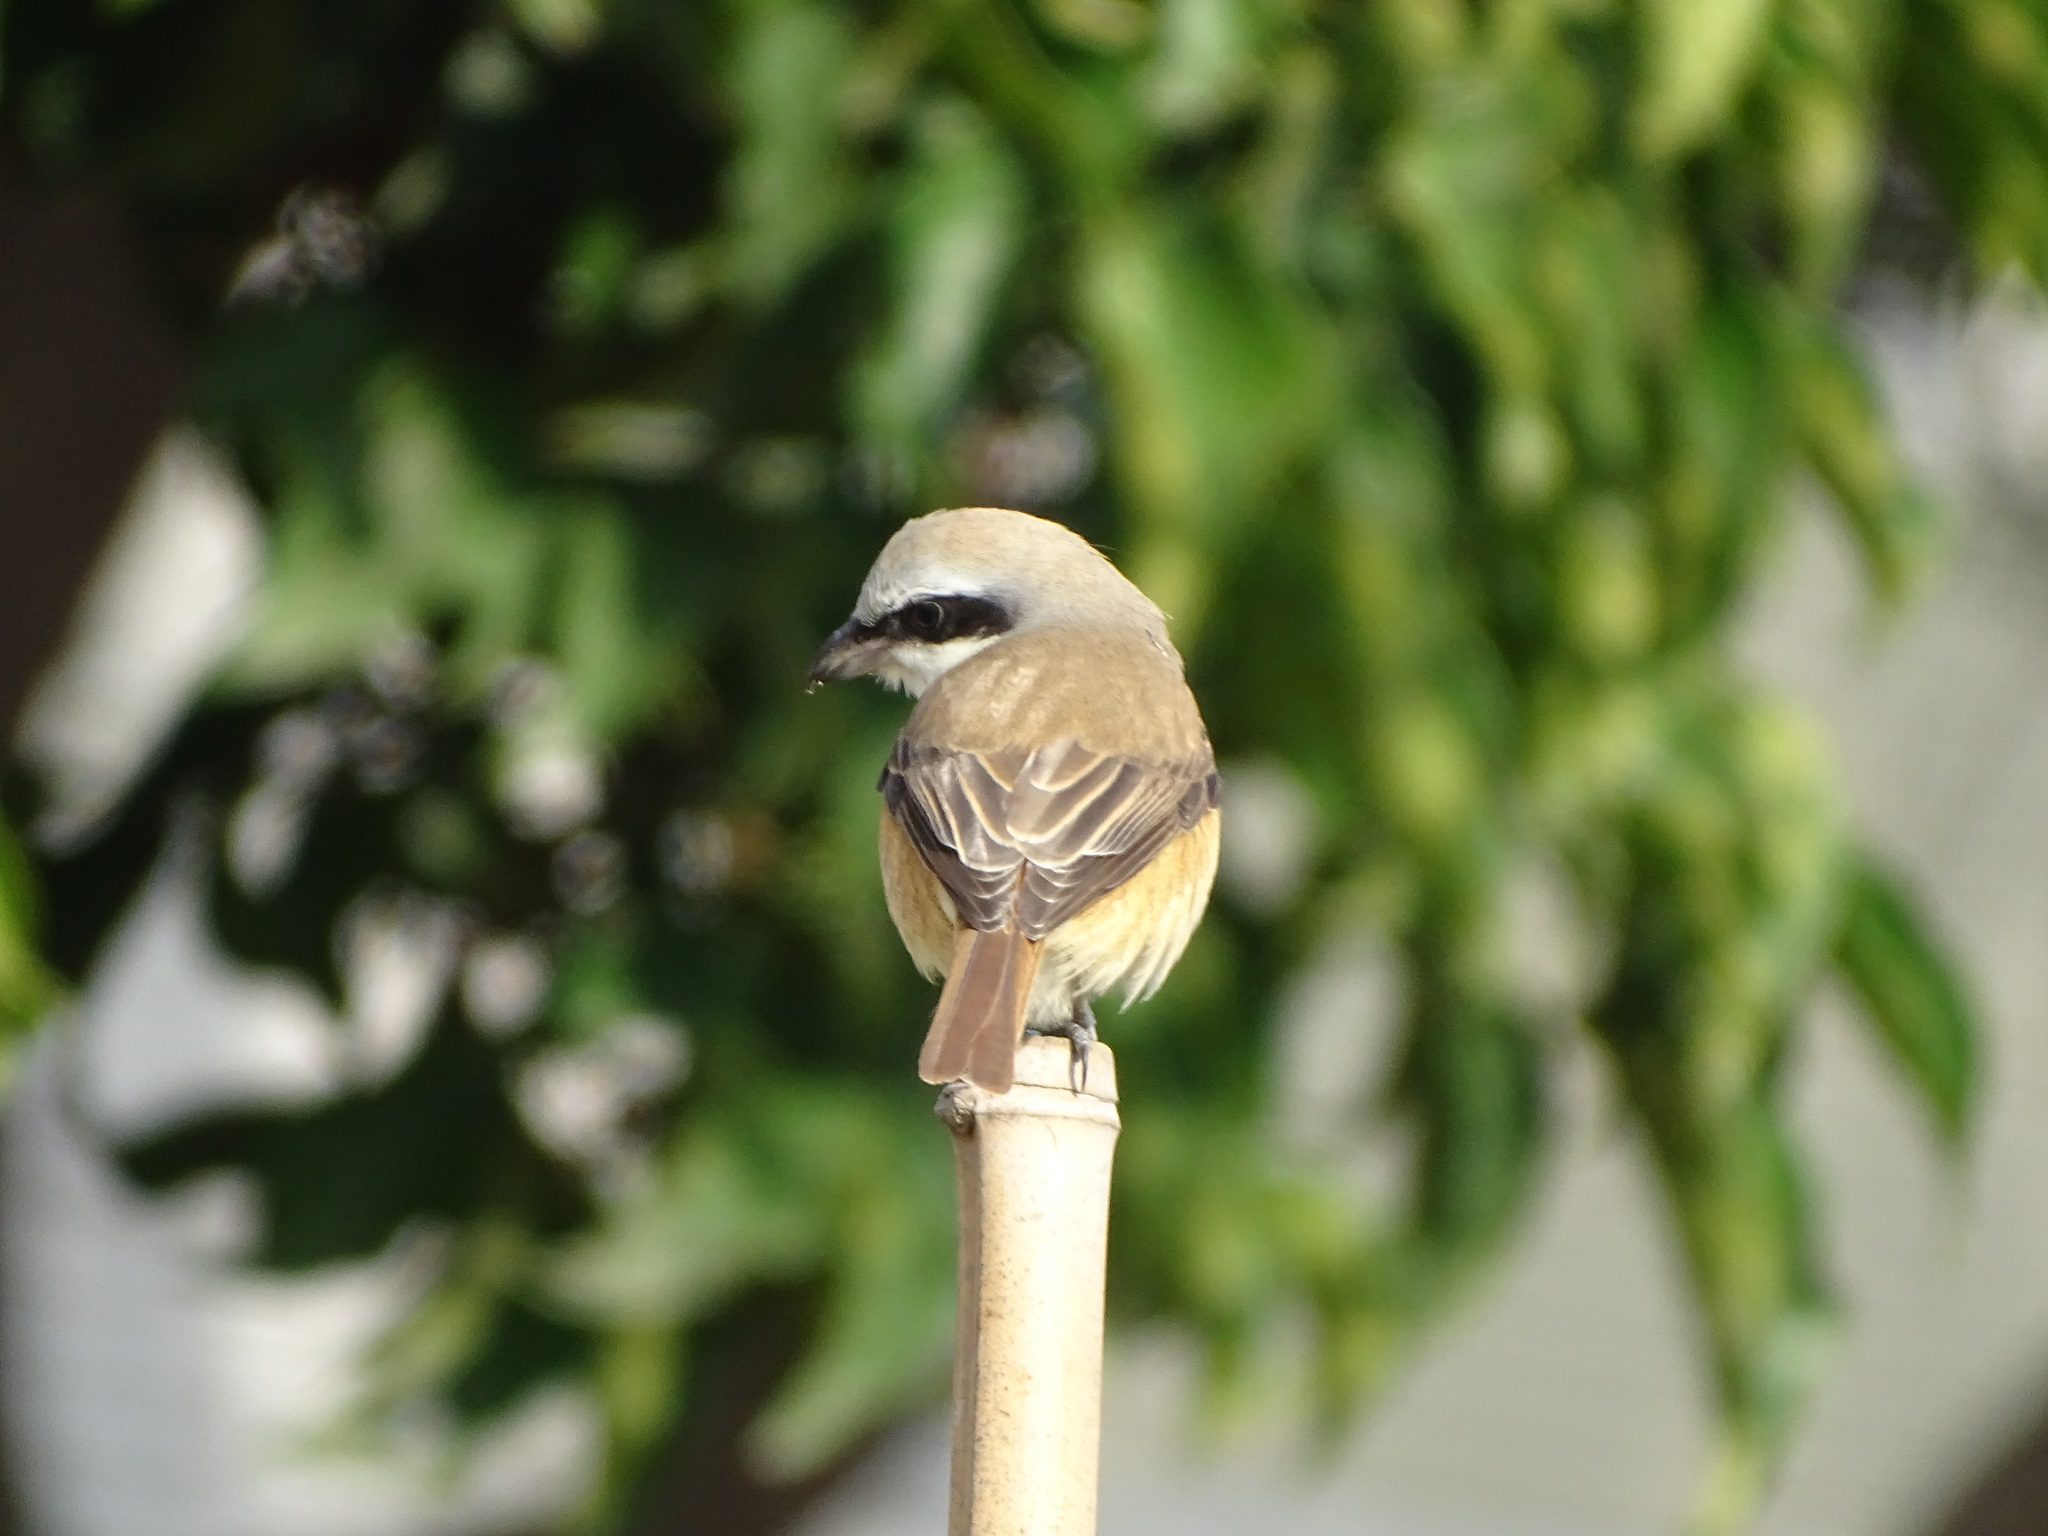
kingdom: Animalia
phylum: Chordata
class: Aves
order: Passeriformes
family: Laniidae
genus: Lanius
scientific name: Lanius cristatus
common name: Brown shrike
